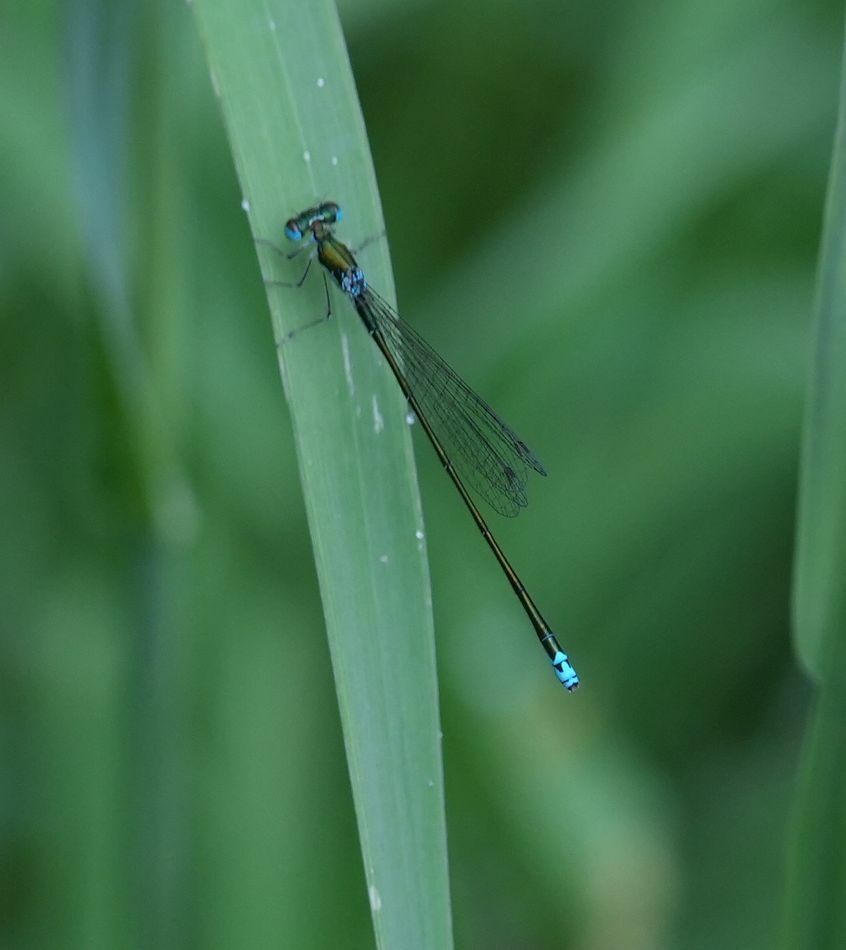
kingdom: Animalia
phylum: Arthropoda
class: Insecta
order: Odonata
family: Coenagrionidae
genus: Nehalennia
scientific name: Nehalennia irene
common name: Sedge sprite
